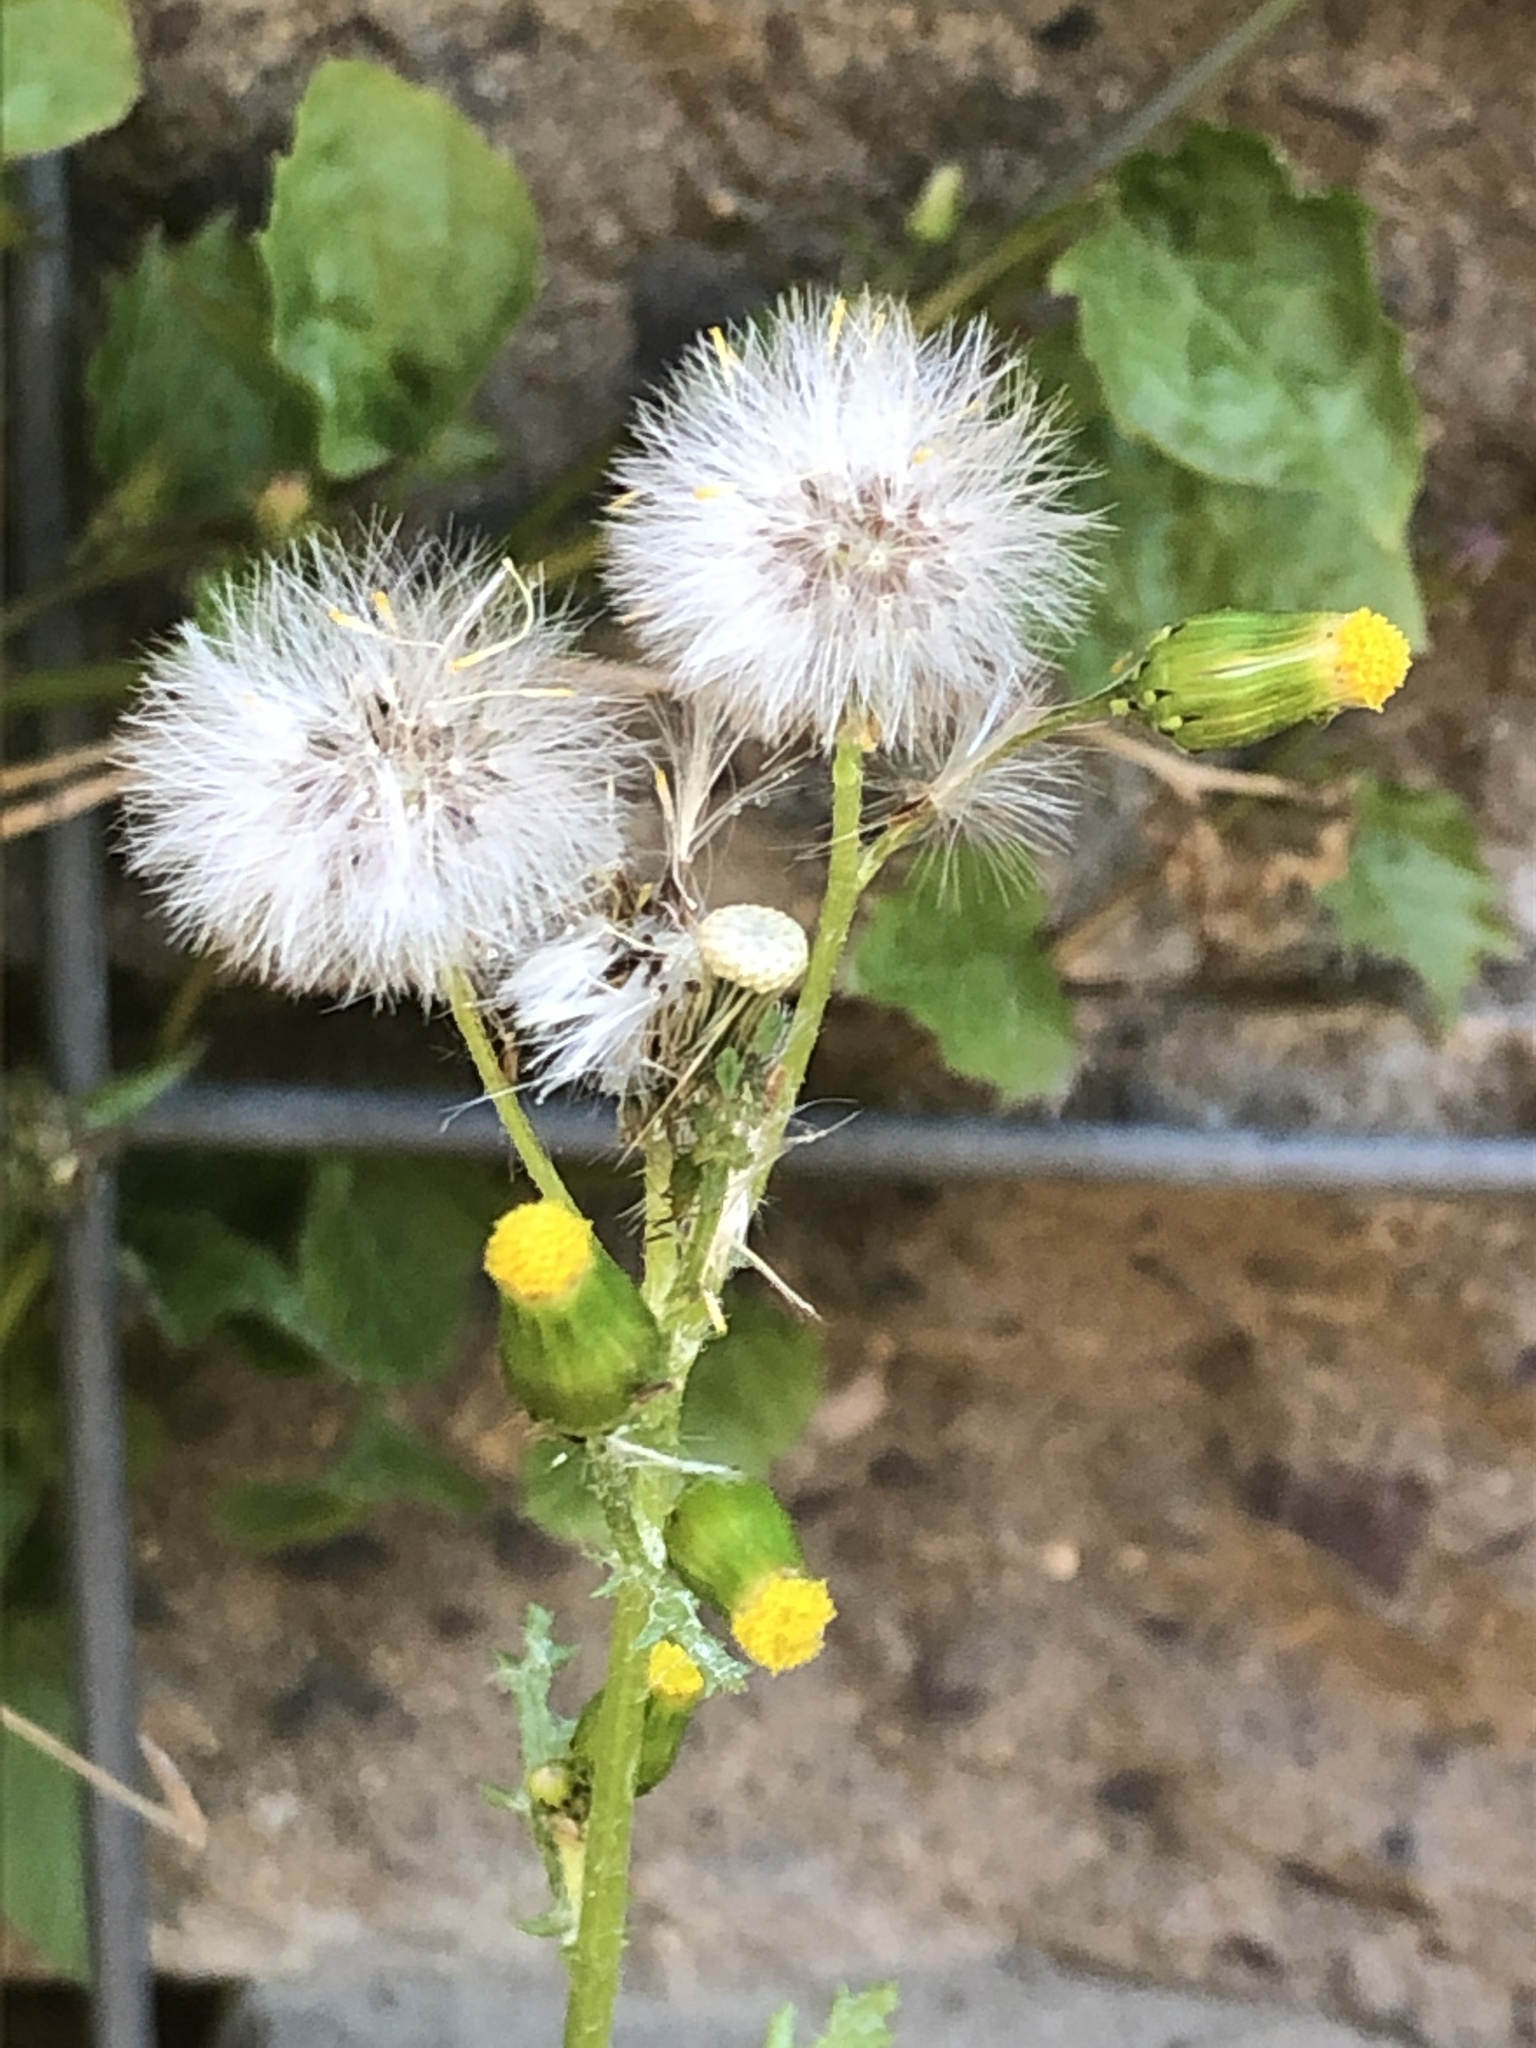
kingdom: Plantae
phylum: Tracheophyta
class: Magnoliopsida
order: Asterales
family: Asteraceae
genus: Senecio
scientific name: Senecio vulgaris
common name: Old-man-in-the-spring
